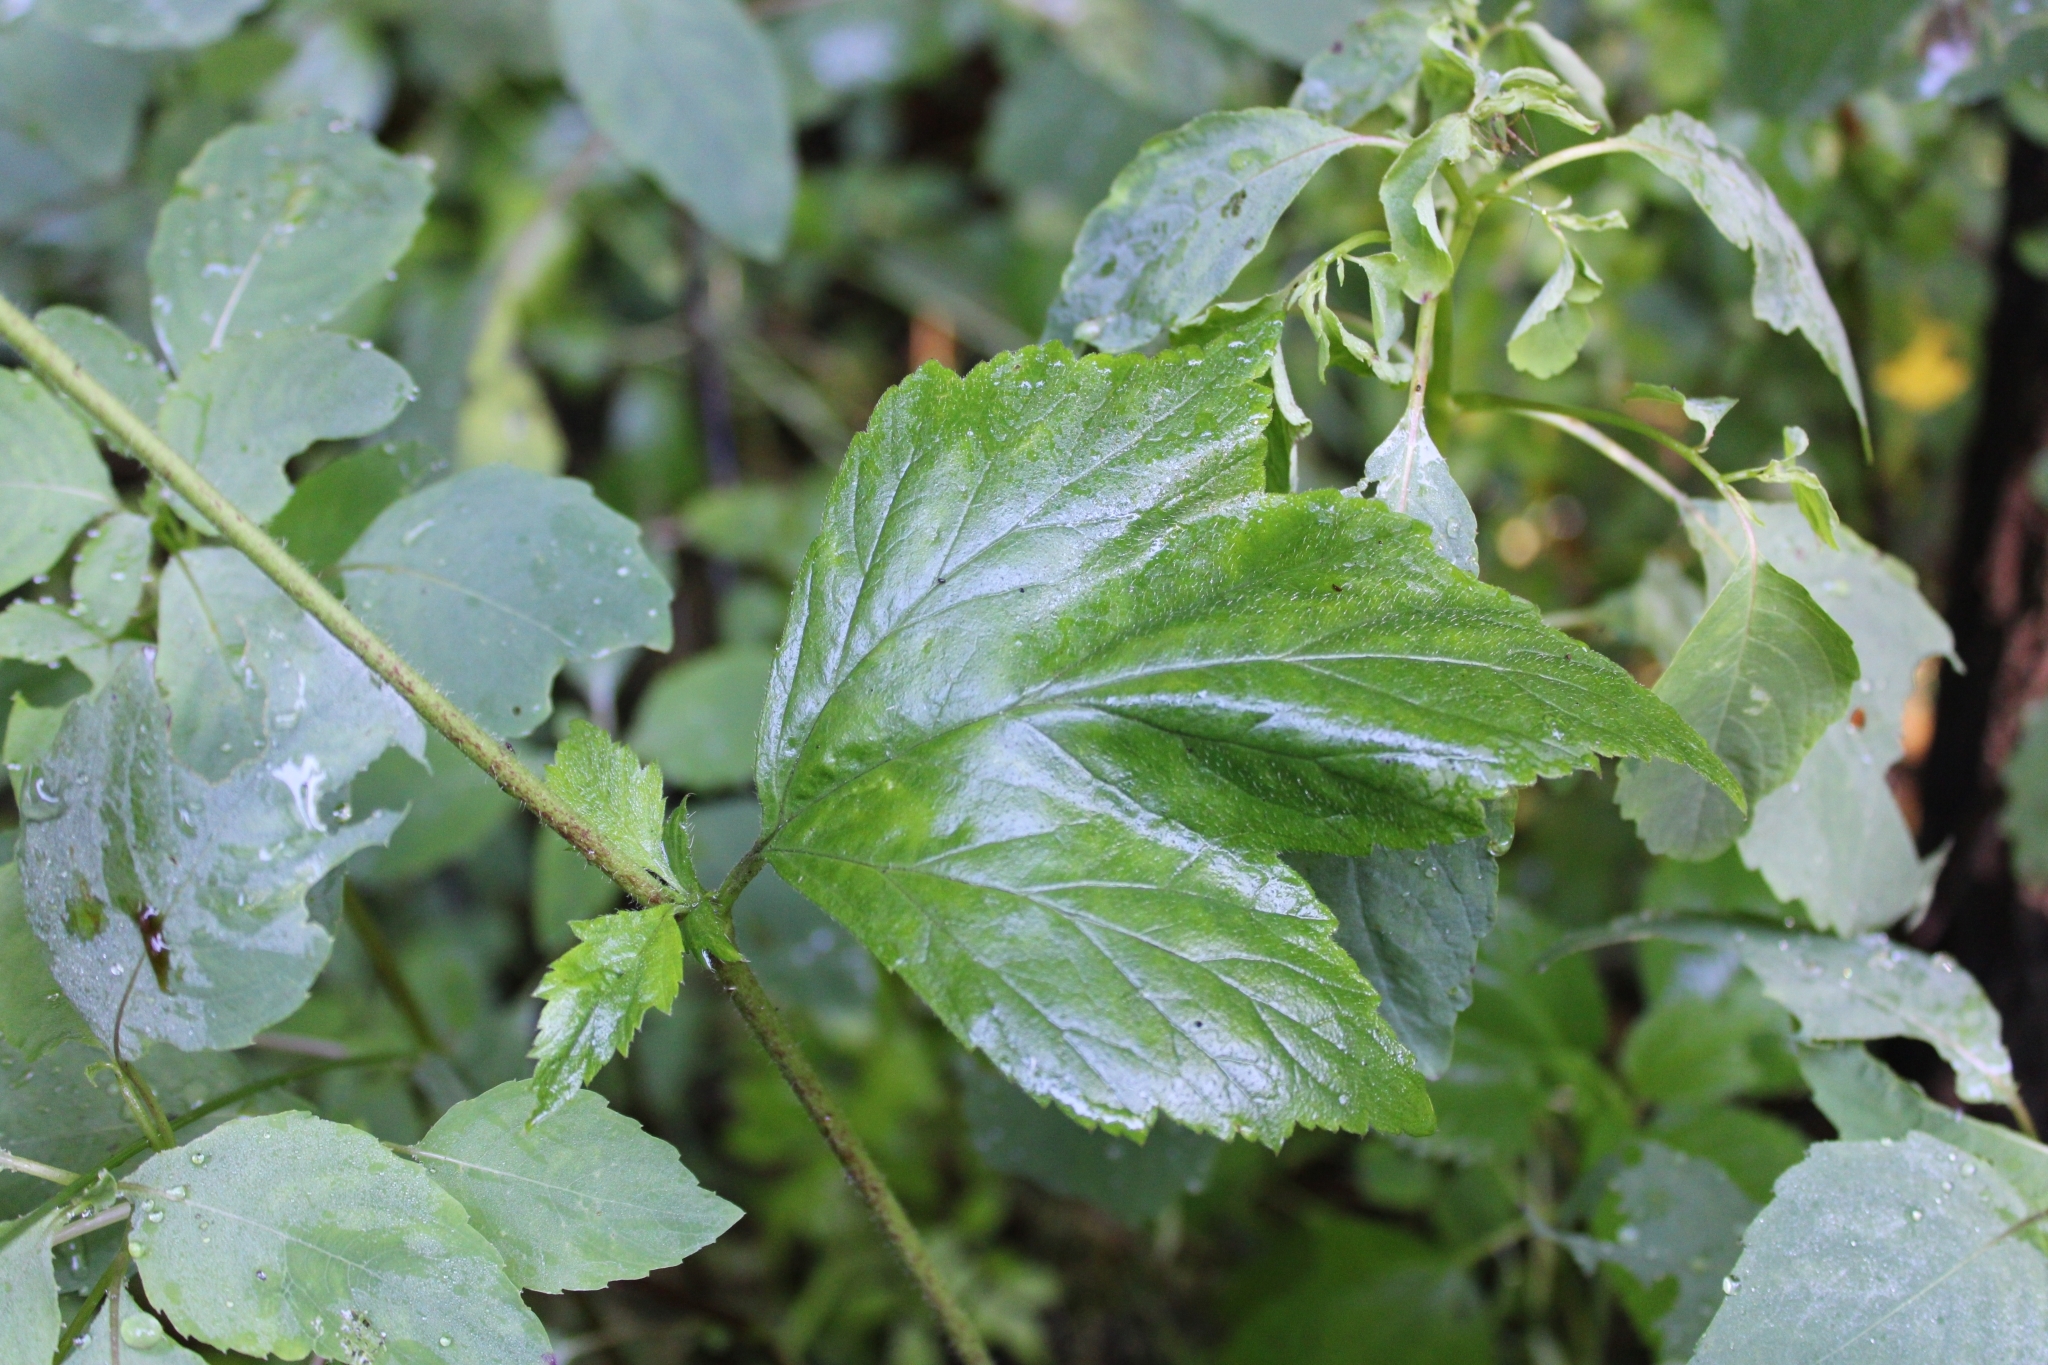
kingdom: Plantae
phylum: Tracheophyta
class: Magnoliopsida
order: Rosales
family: Rosaceae
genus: Geum
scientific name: Geum canadense
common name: White avens
